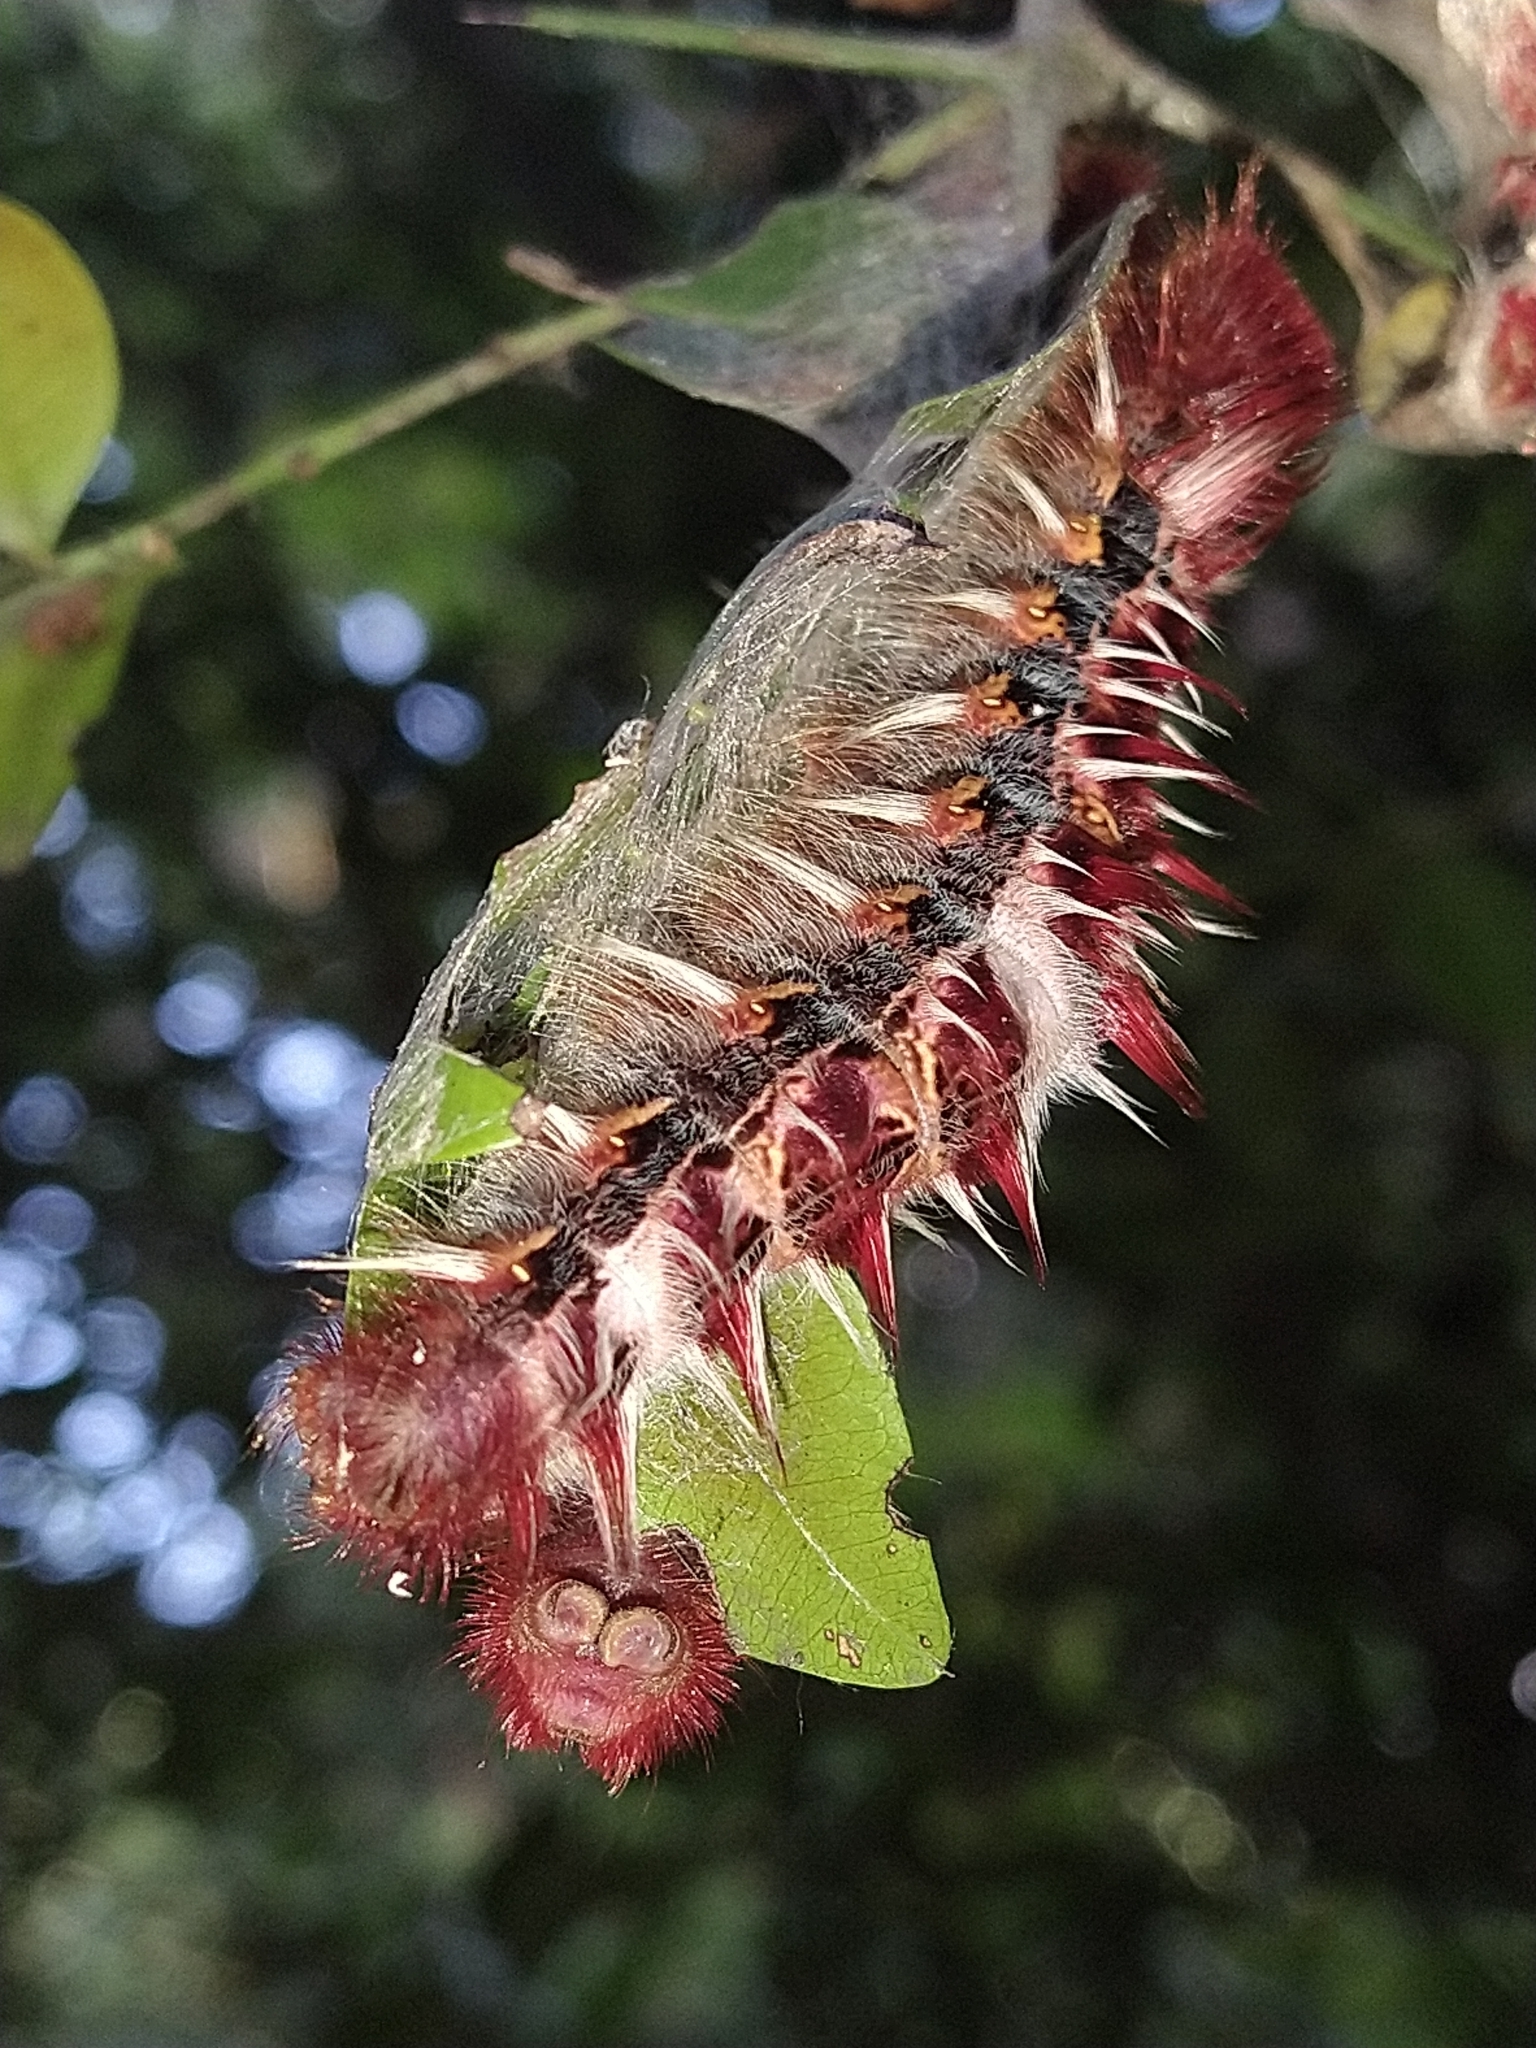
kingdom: Animalia
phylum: Arthropoda
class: Insecta
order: Lepidoptera
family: Nymphalidae
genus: Morpho
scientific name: Morpho epistrophus
